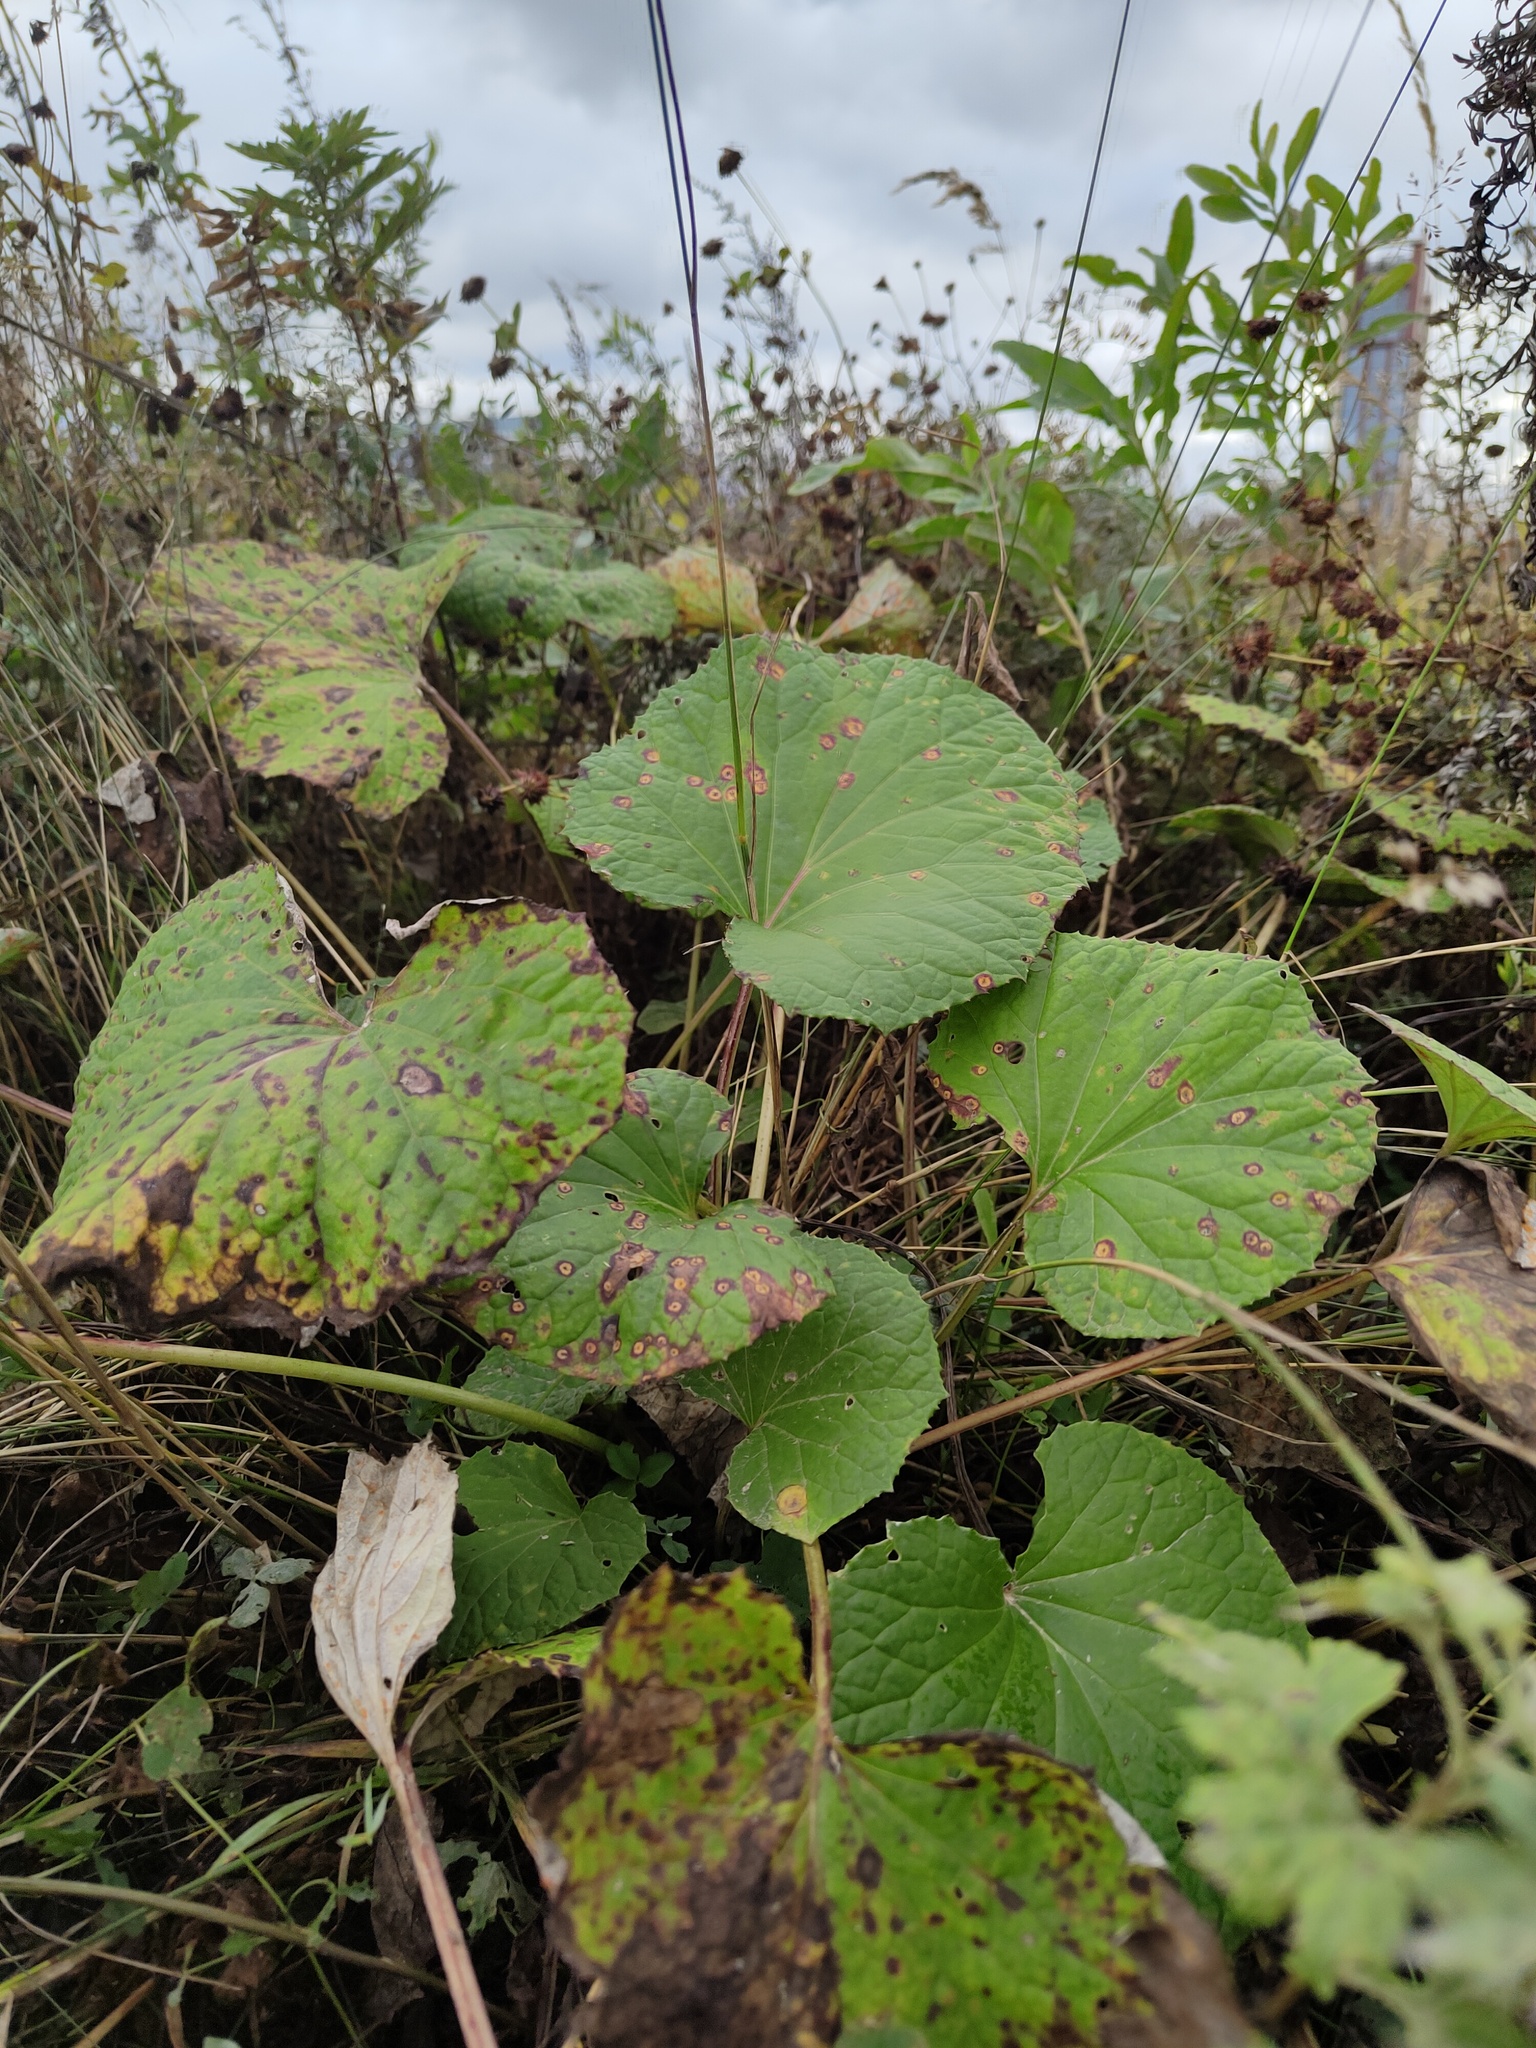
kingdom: Plantae
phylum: Tracheophyta
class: Magnoliopsida
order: Asterales
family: Asteraceae
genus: Tussilago
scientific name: Tussilago farfara
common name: Coltsfoot
